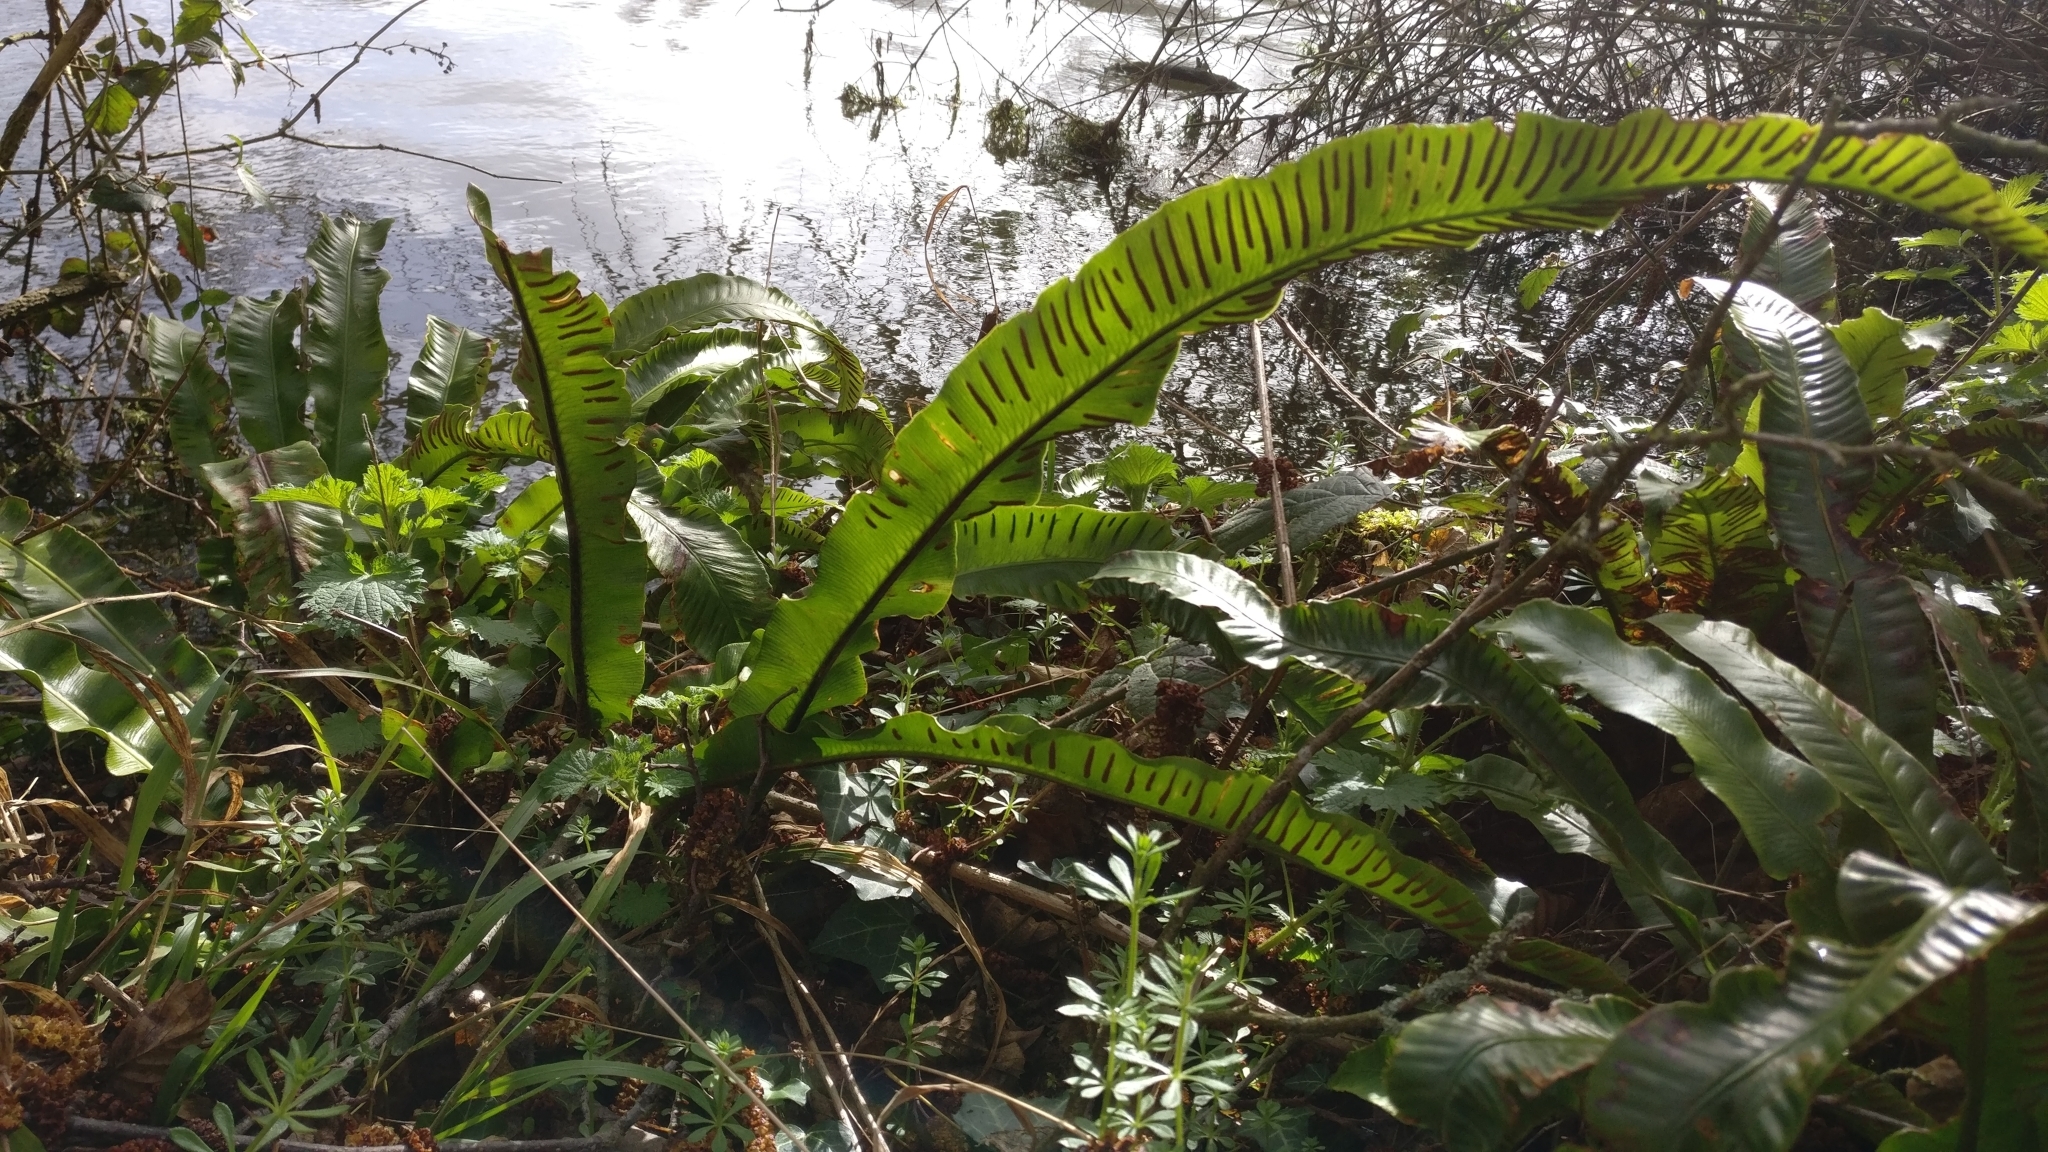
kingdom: Plantae
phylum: Tracheophyta
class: Polypodiopsida
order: Polypodiales
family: Aspleniaceae
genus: Asplenium
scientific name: Asplenium scolopendrium
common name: Hart's-tongue fern
